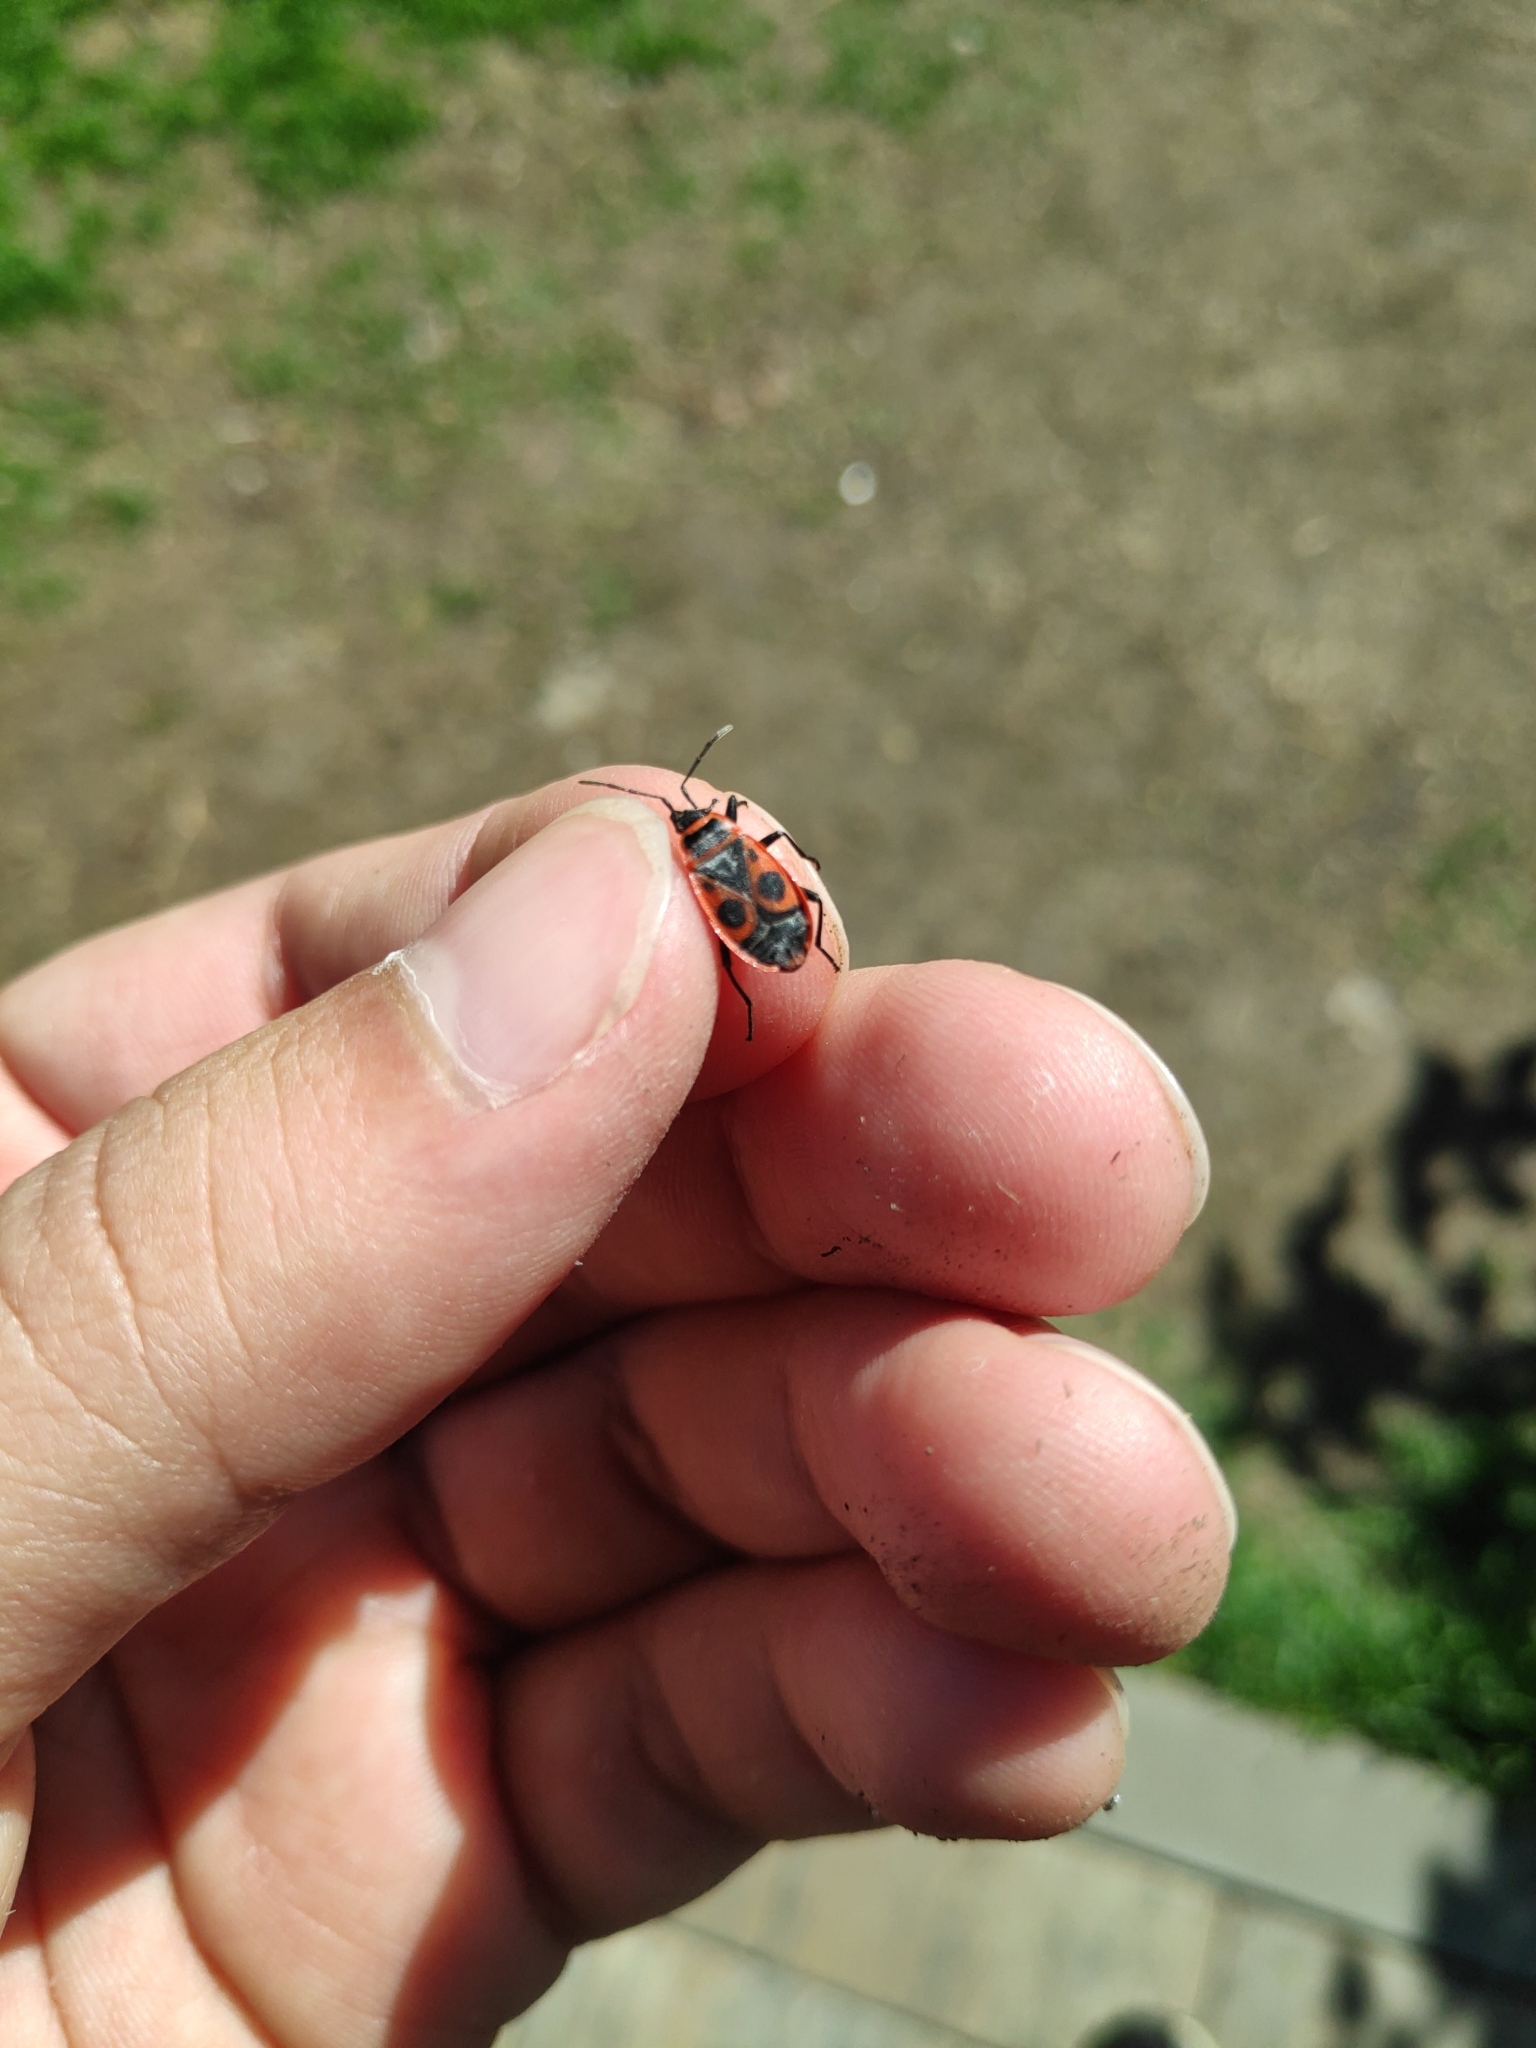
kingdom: Animalia
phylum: Arthropoda
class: Insecta
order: Hemiptera
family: Pyrrhocoridae
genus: Pyrrhocoris
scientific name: Pyrrhocoris apterus
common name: Firebug
